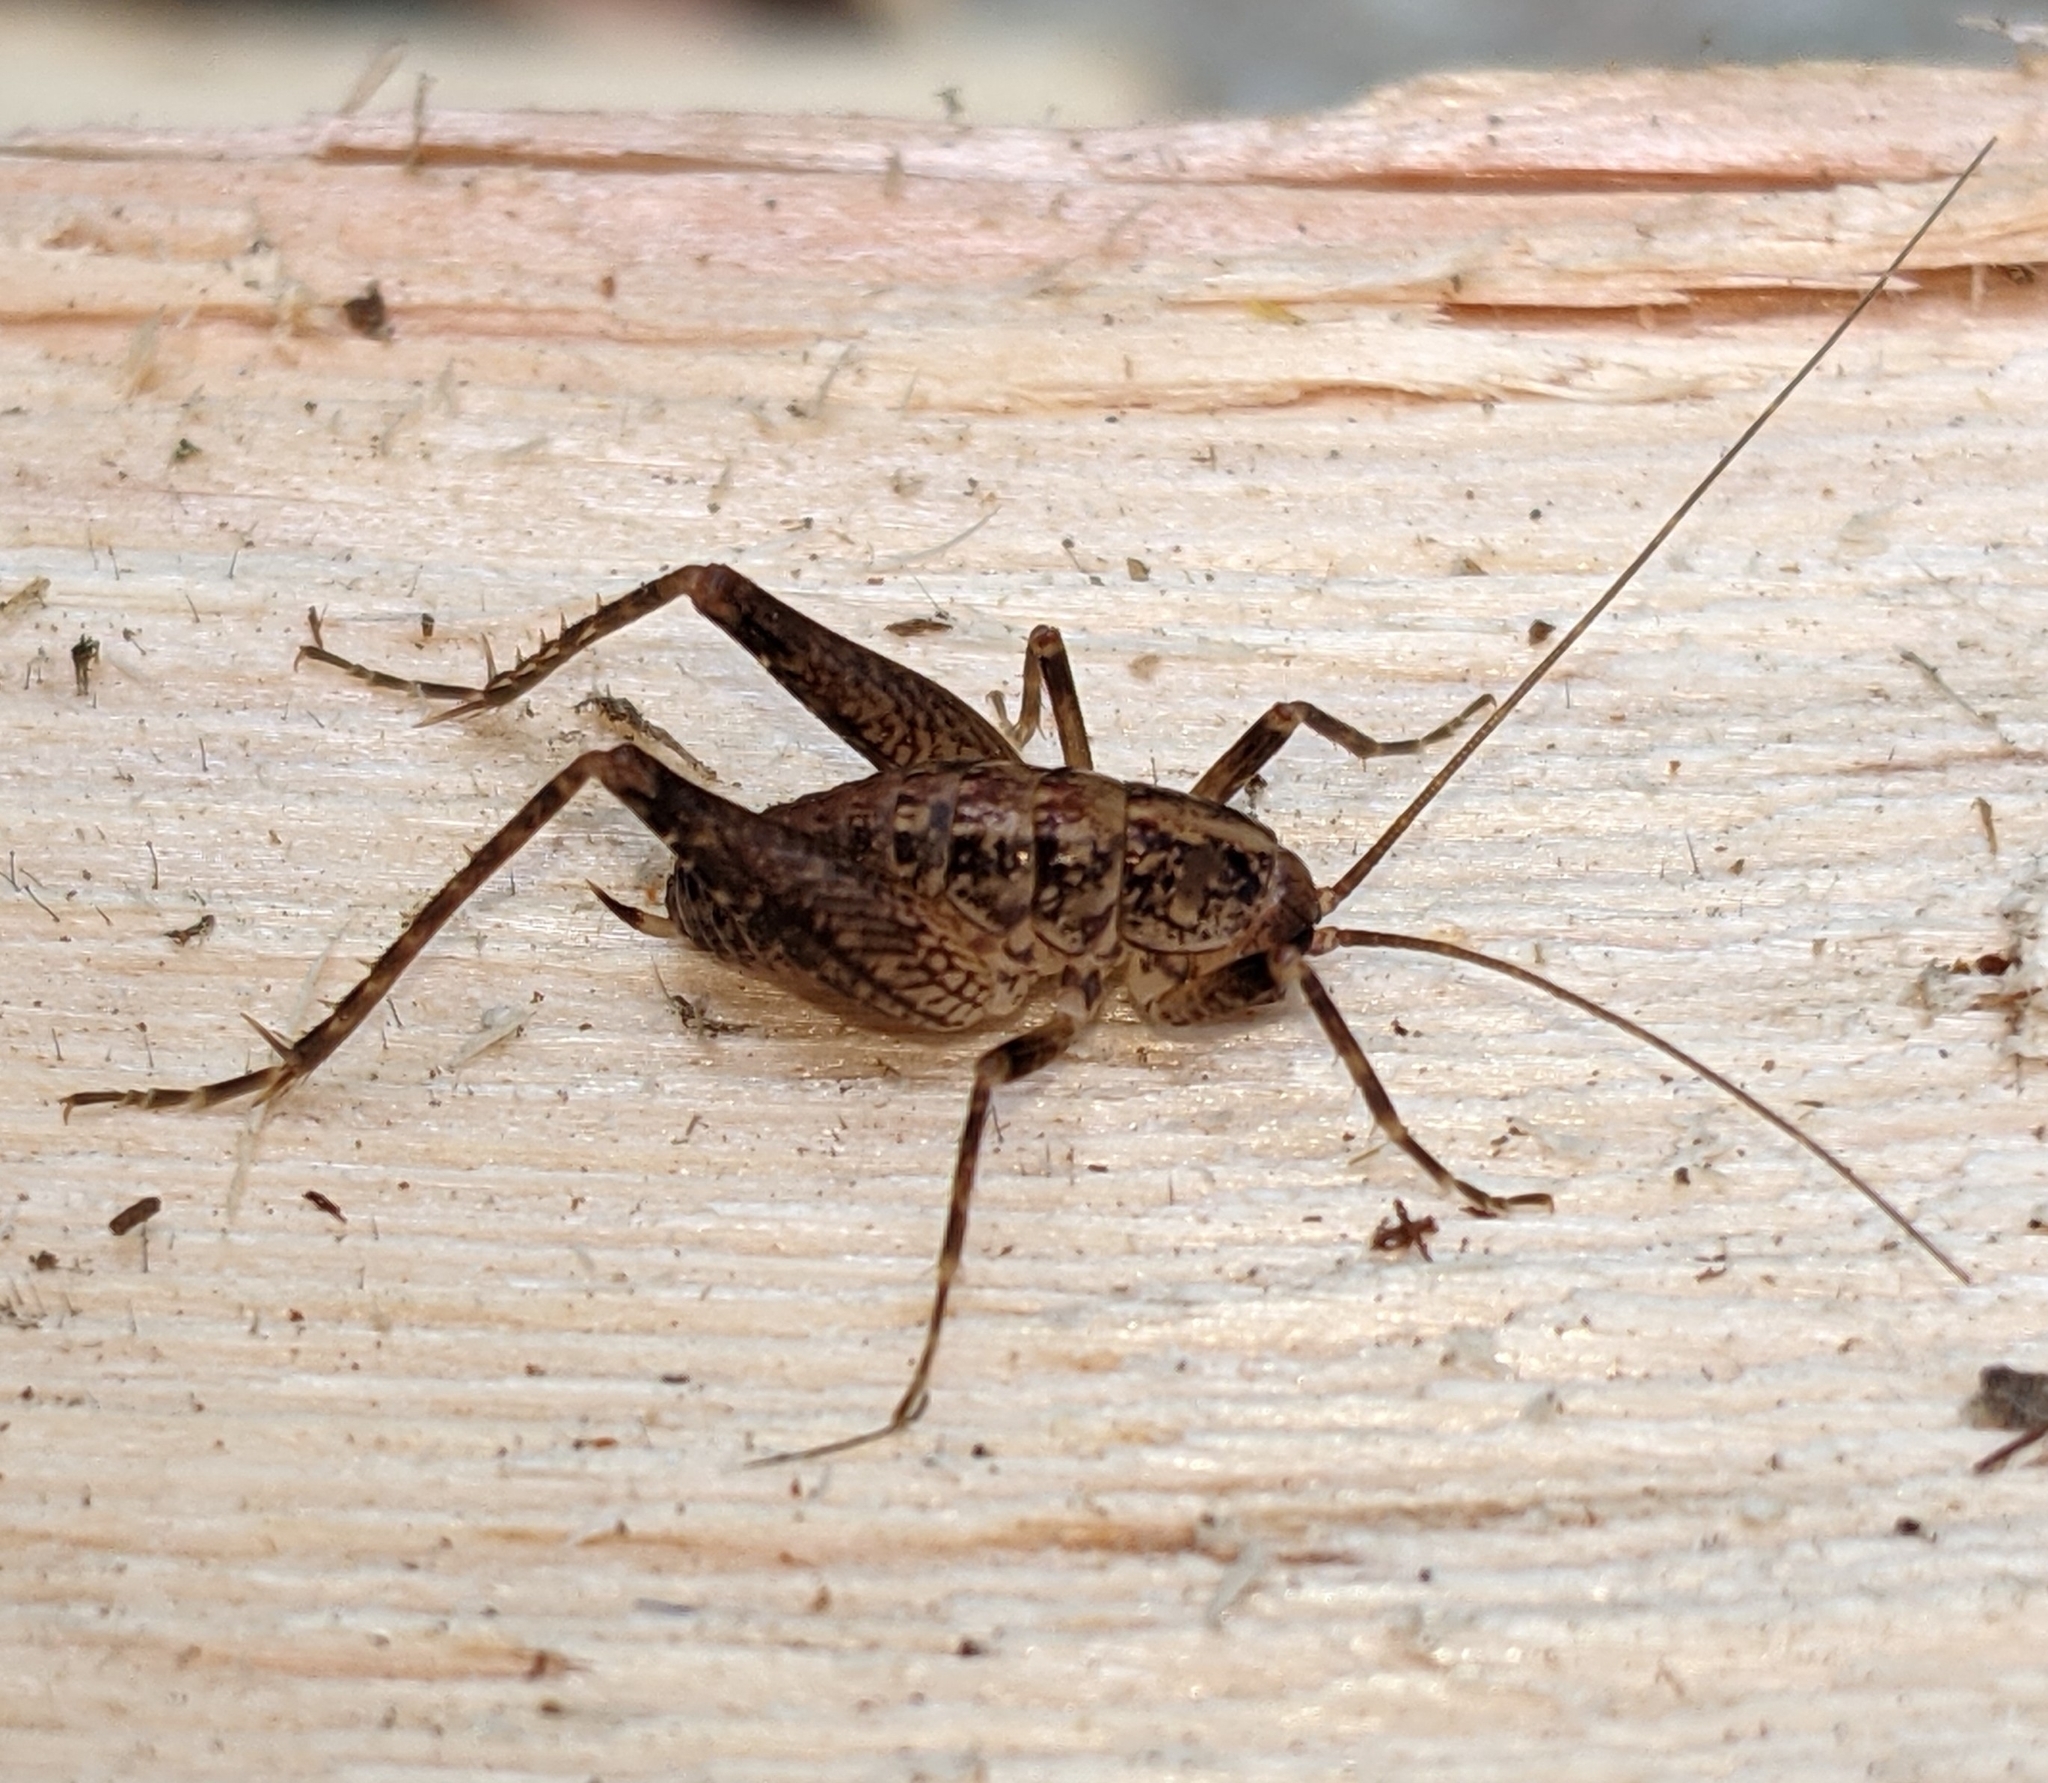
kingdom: Animalia
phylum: Arthropoda
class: Insecta
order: Orthoptera
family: Rhaphidophoridae
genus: Pristoceuthophilus
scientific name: Pristoceuthophilus celatus
